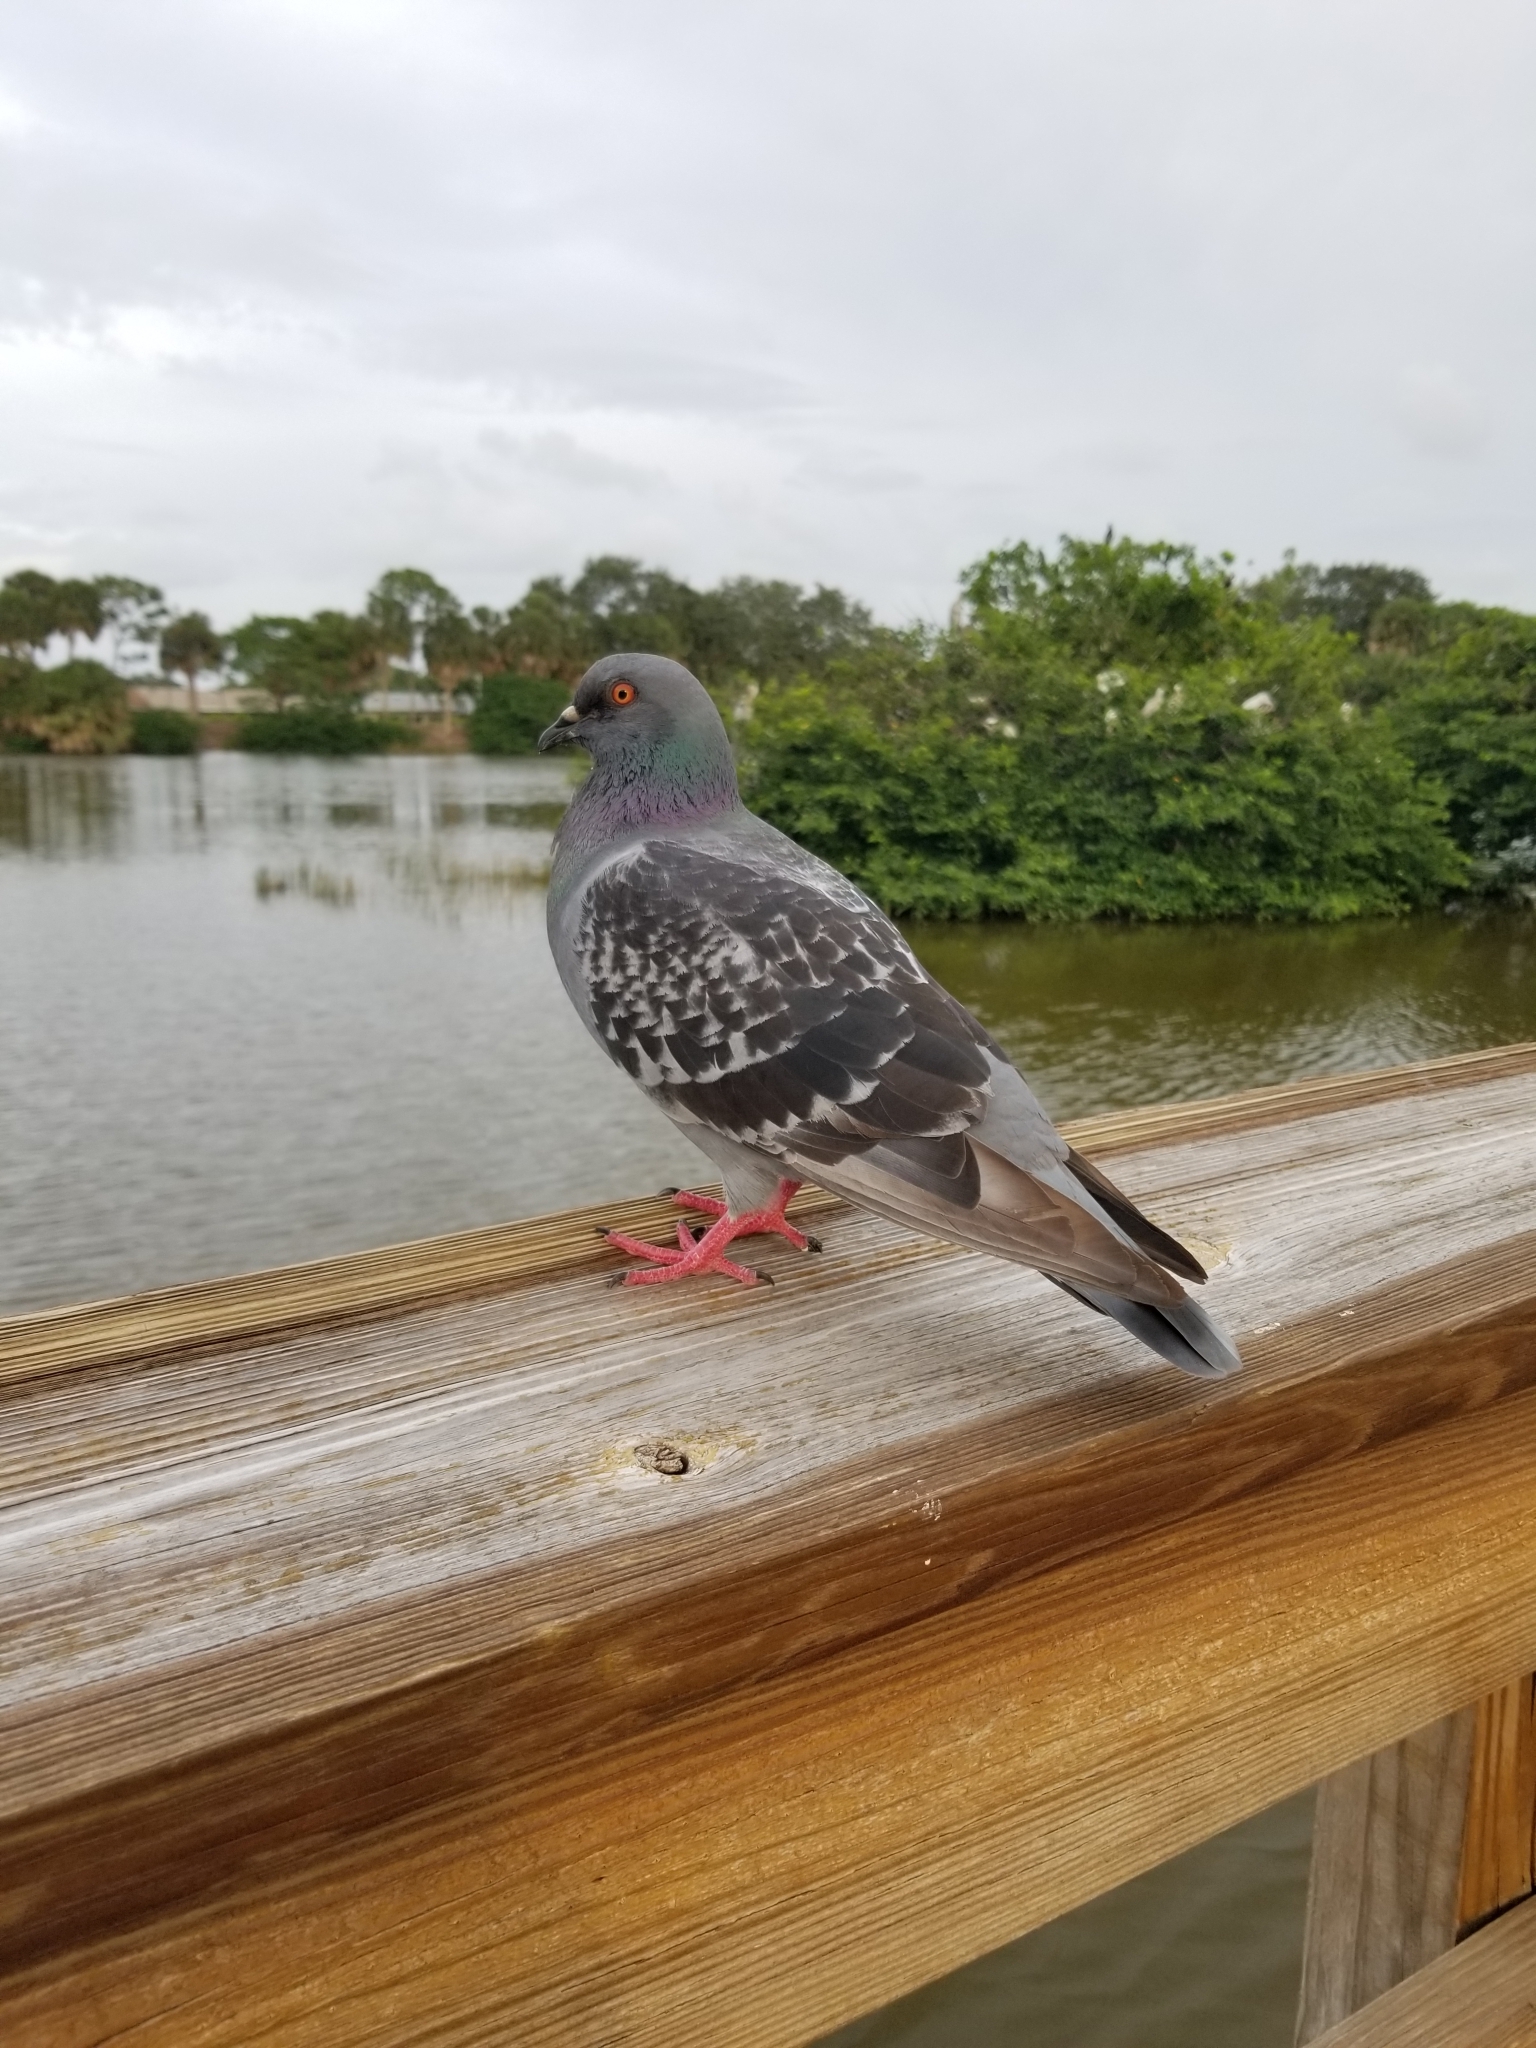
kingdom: Animalia
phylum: Chordata
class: Aves
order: Columbiformes
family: Columbidae
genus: Columba
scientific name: Columba livia
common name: Rock pigeon
